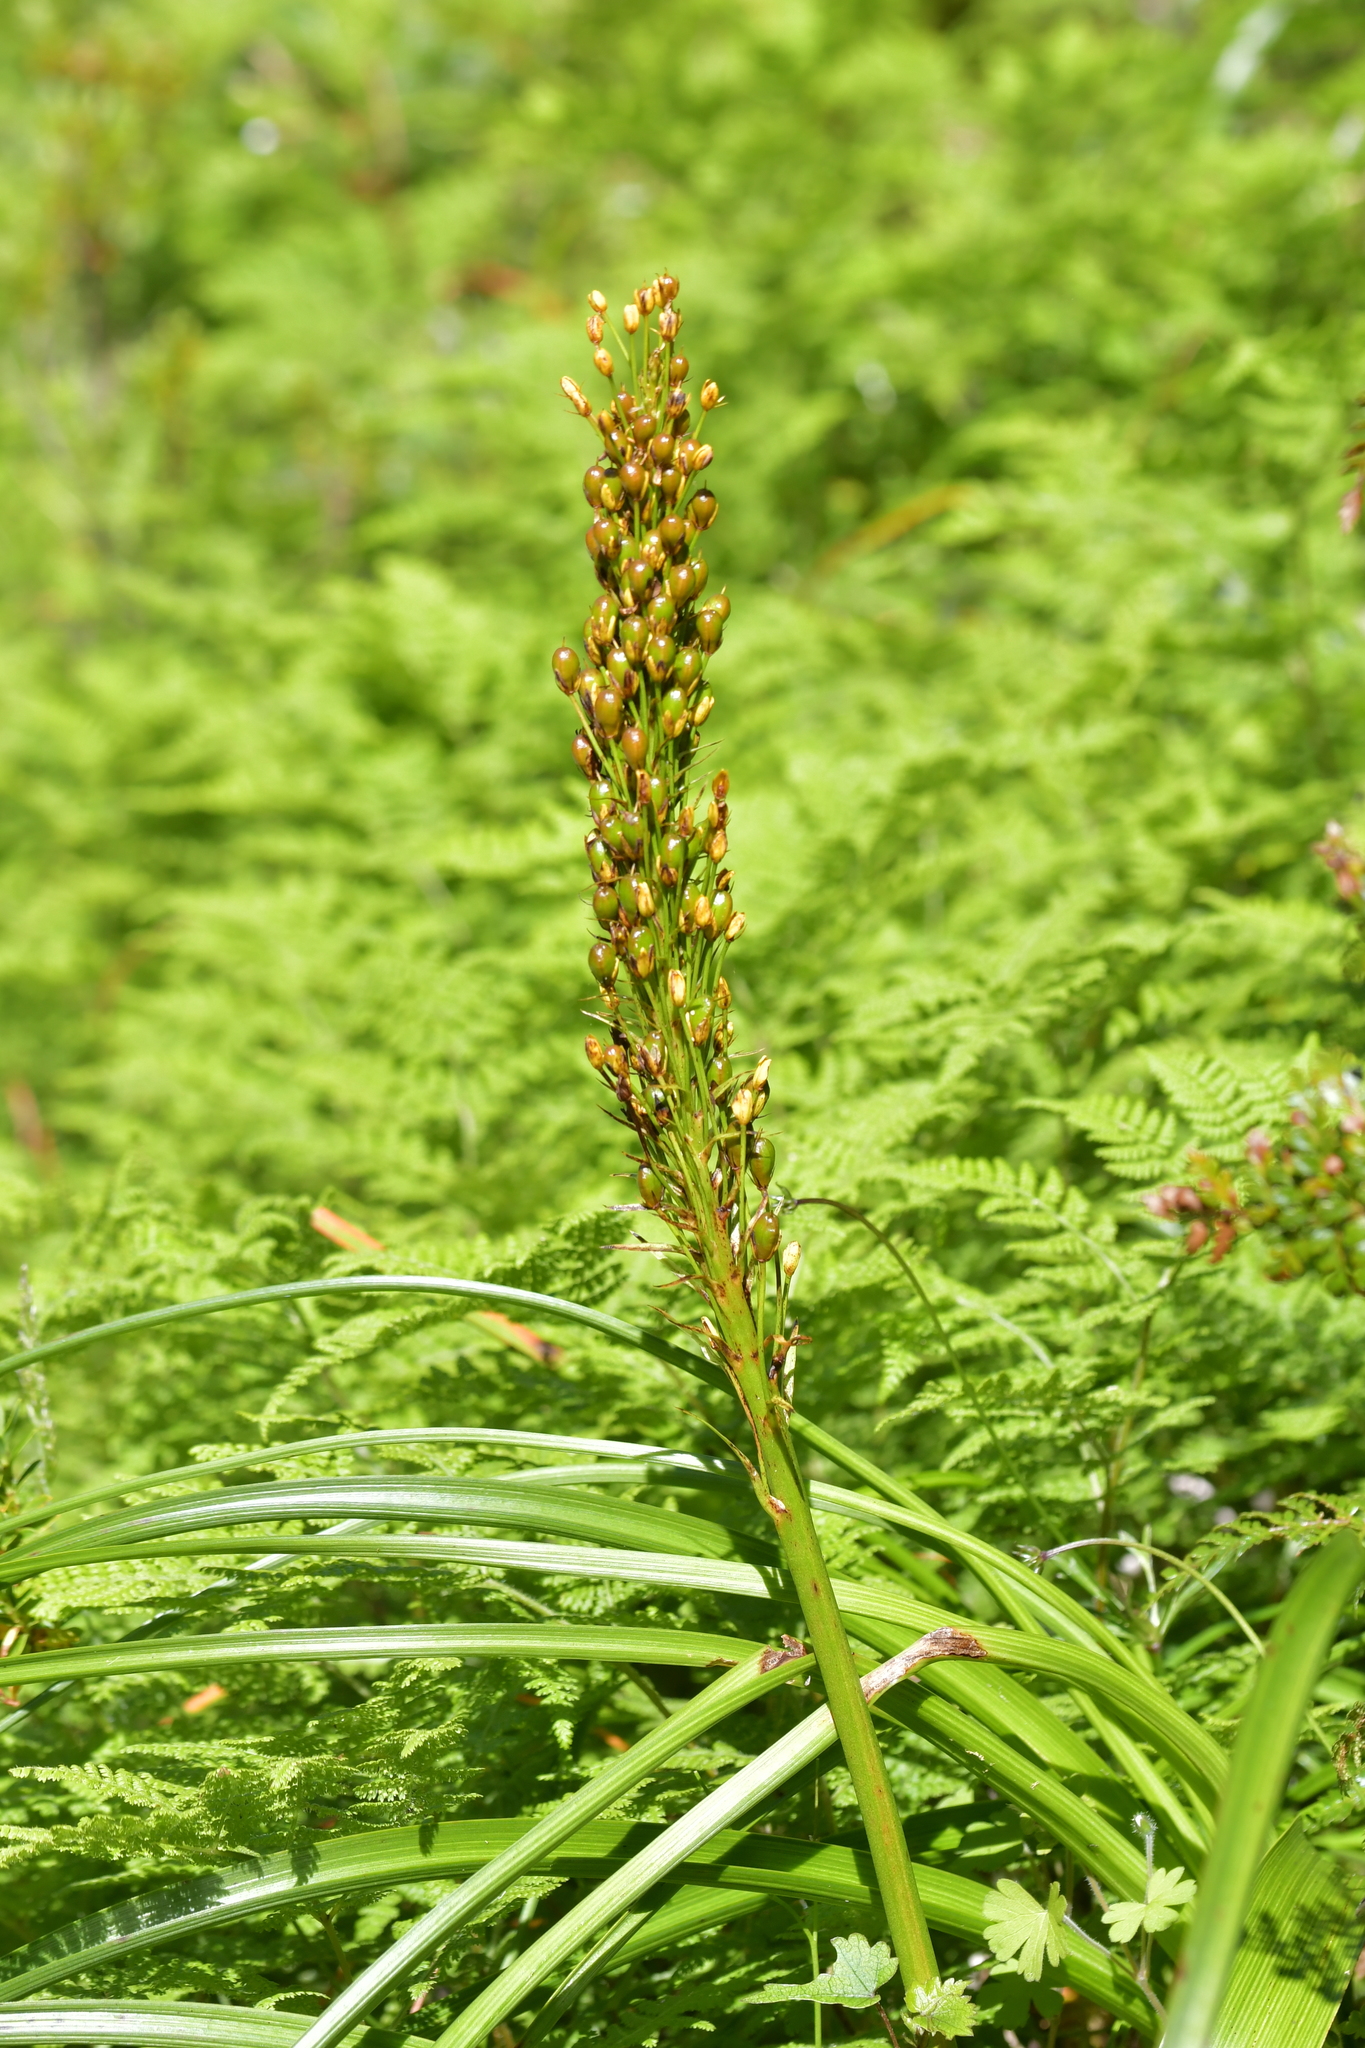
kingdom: Plantae
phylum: Tracheophyta
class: Liliopsida
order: Asparagales
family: Asphodelaceae
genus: Bulbinella
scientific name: Bulbinella gibbsii
